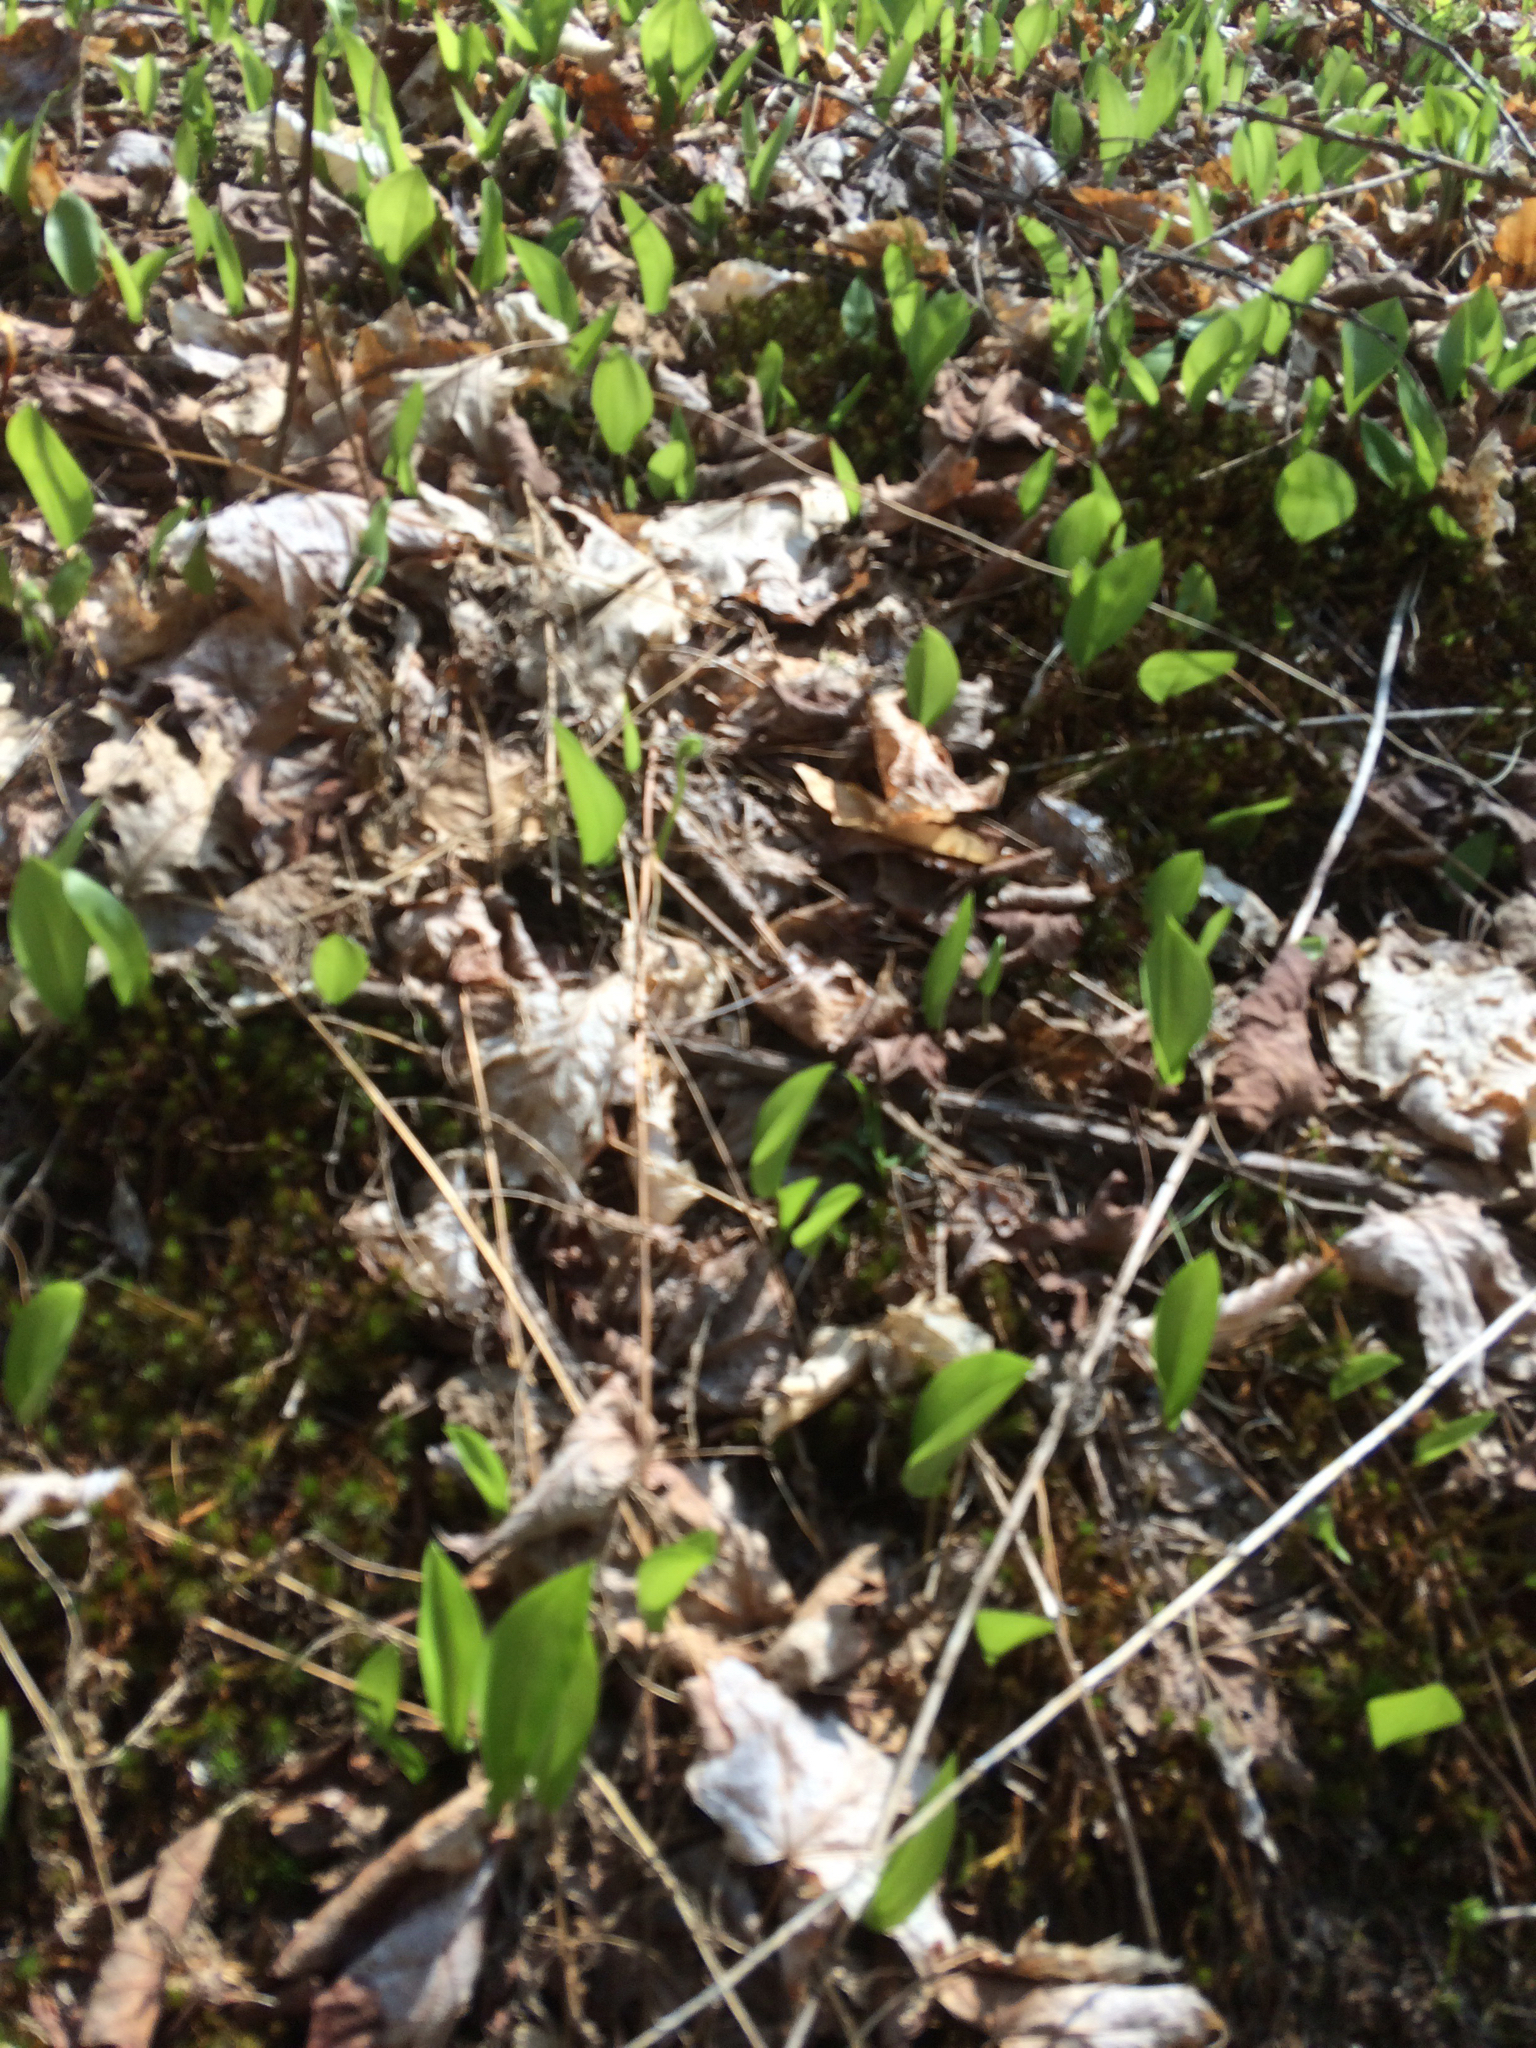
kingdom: Plantae
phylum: Tracheophyta
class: Liliopsida
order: Asparagales
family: Asparagaceae
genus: Maianthemum
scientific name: Maianthemum canadense
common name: False lily-of-the-valley
